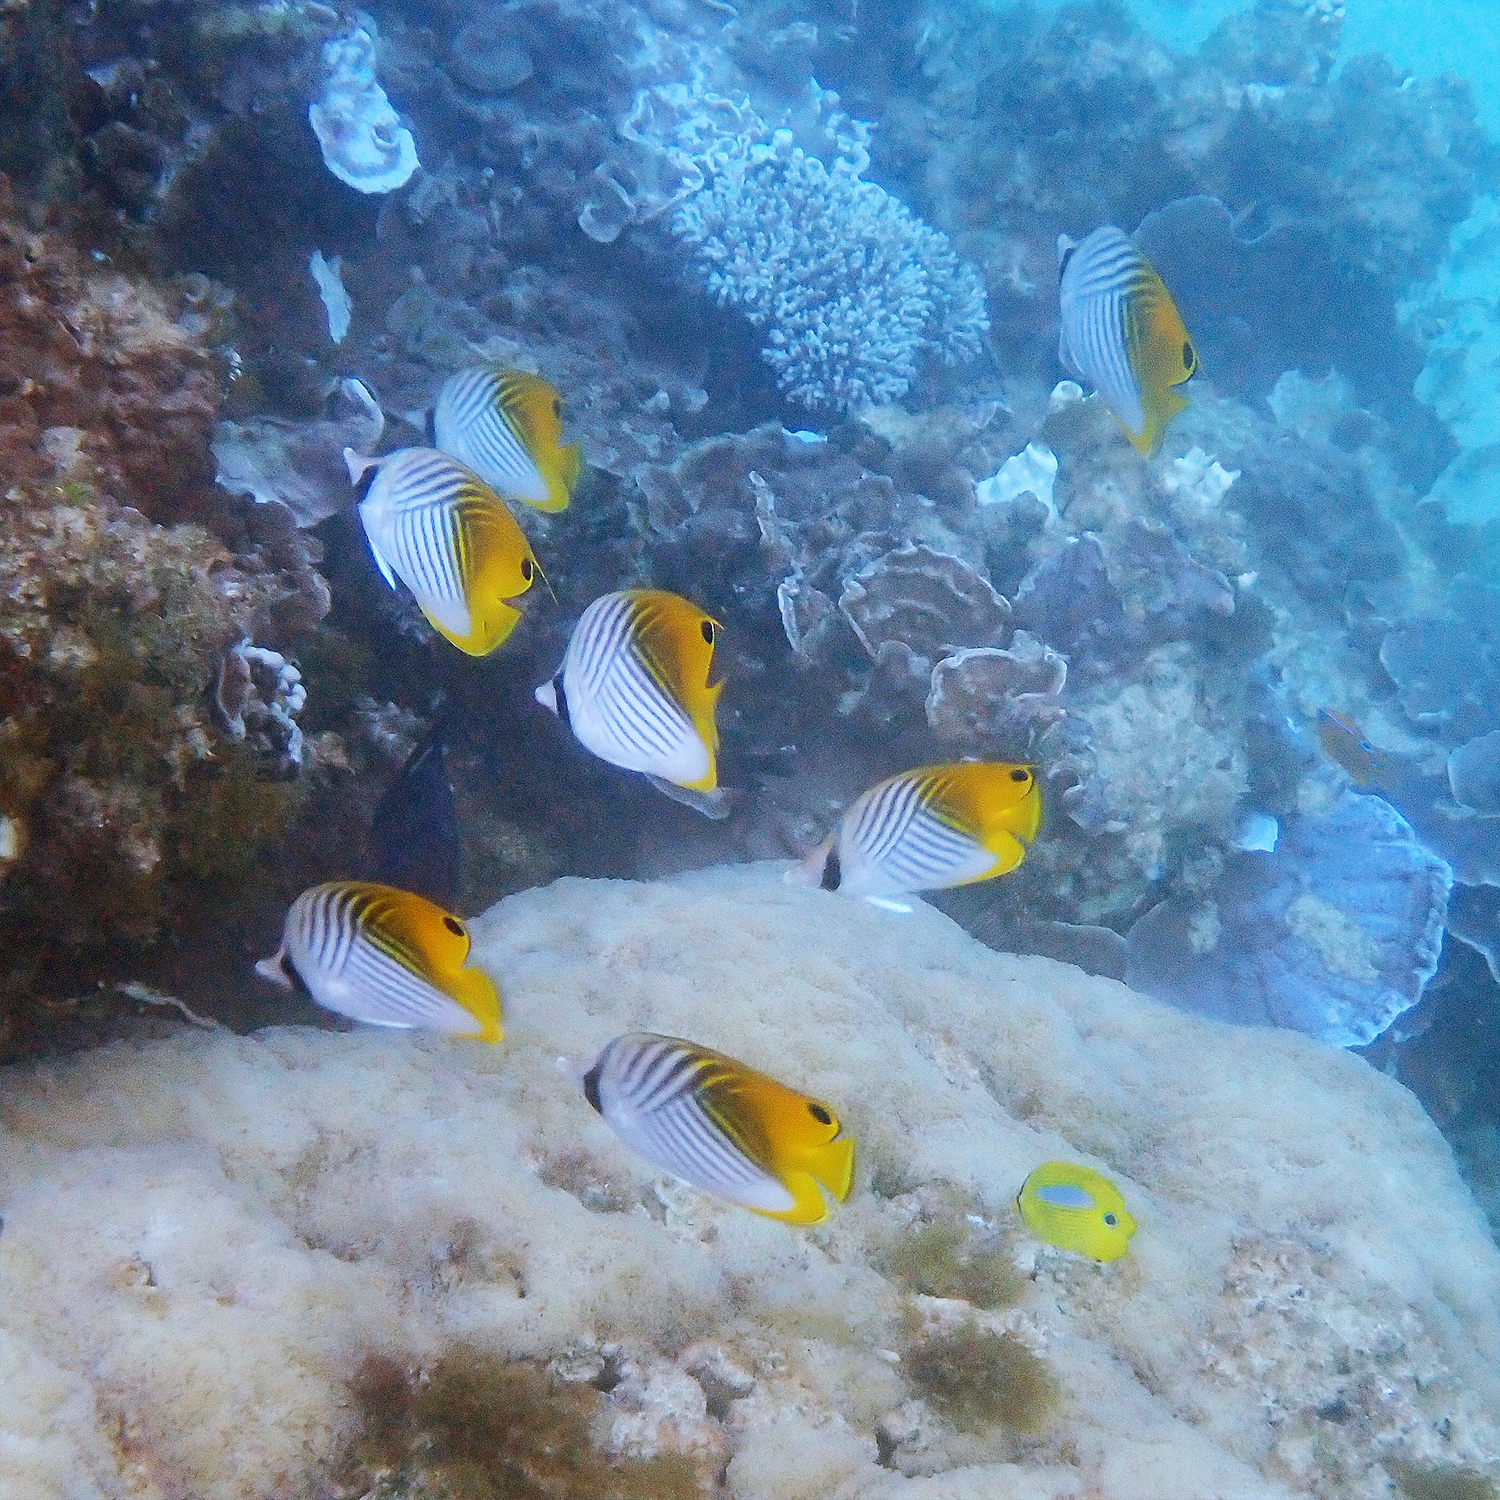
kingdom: Animalia
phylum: Chordata
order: Perciformes
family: Chaetodontidae
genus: Chaetodon
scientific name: Chaetodon auriga
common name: Threadfin butterflyfish
